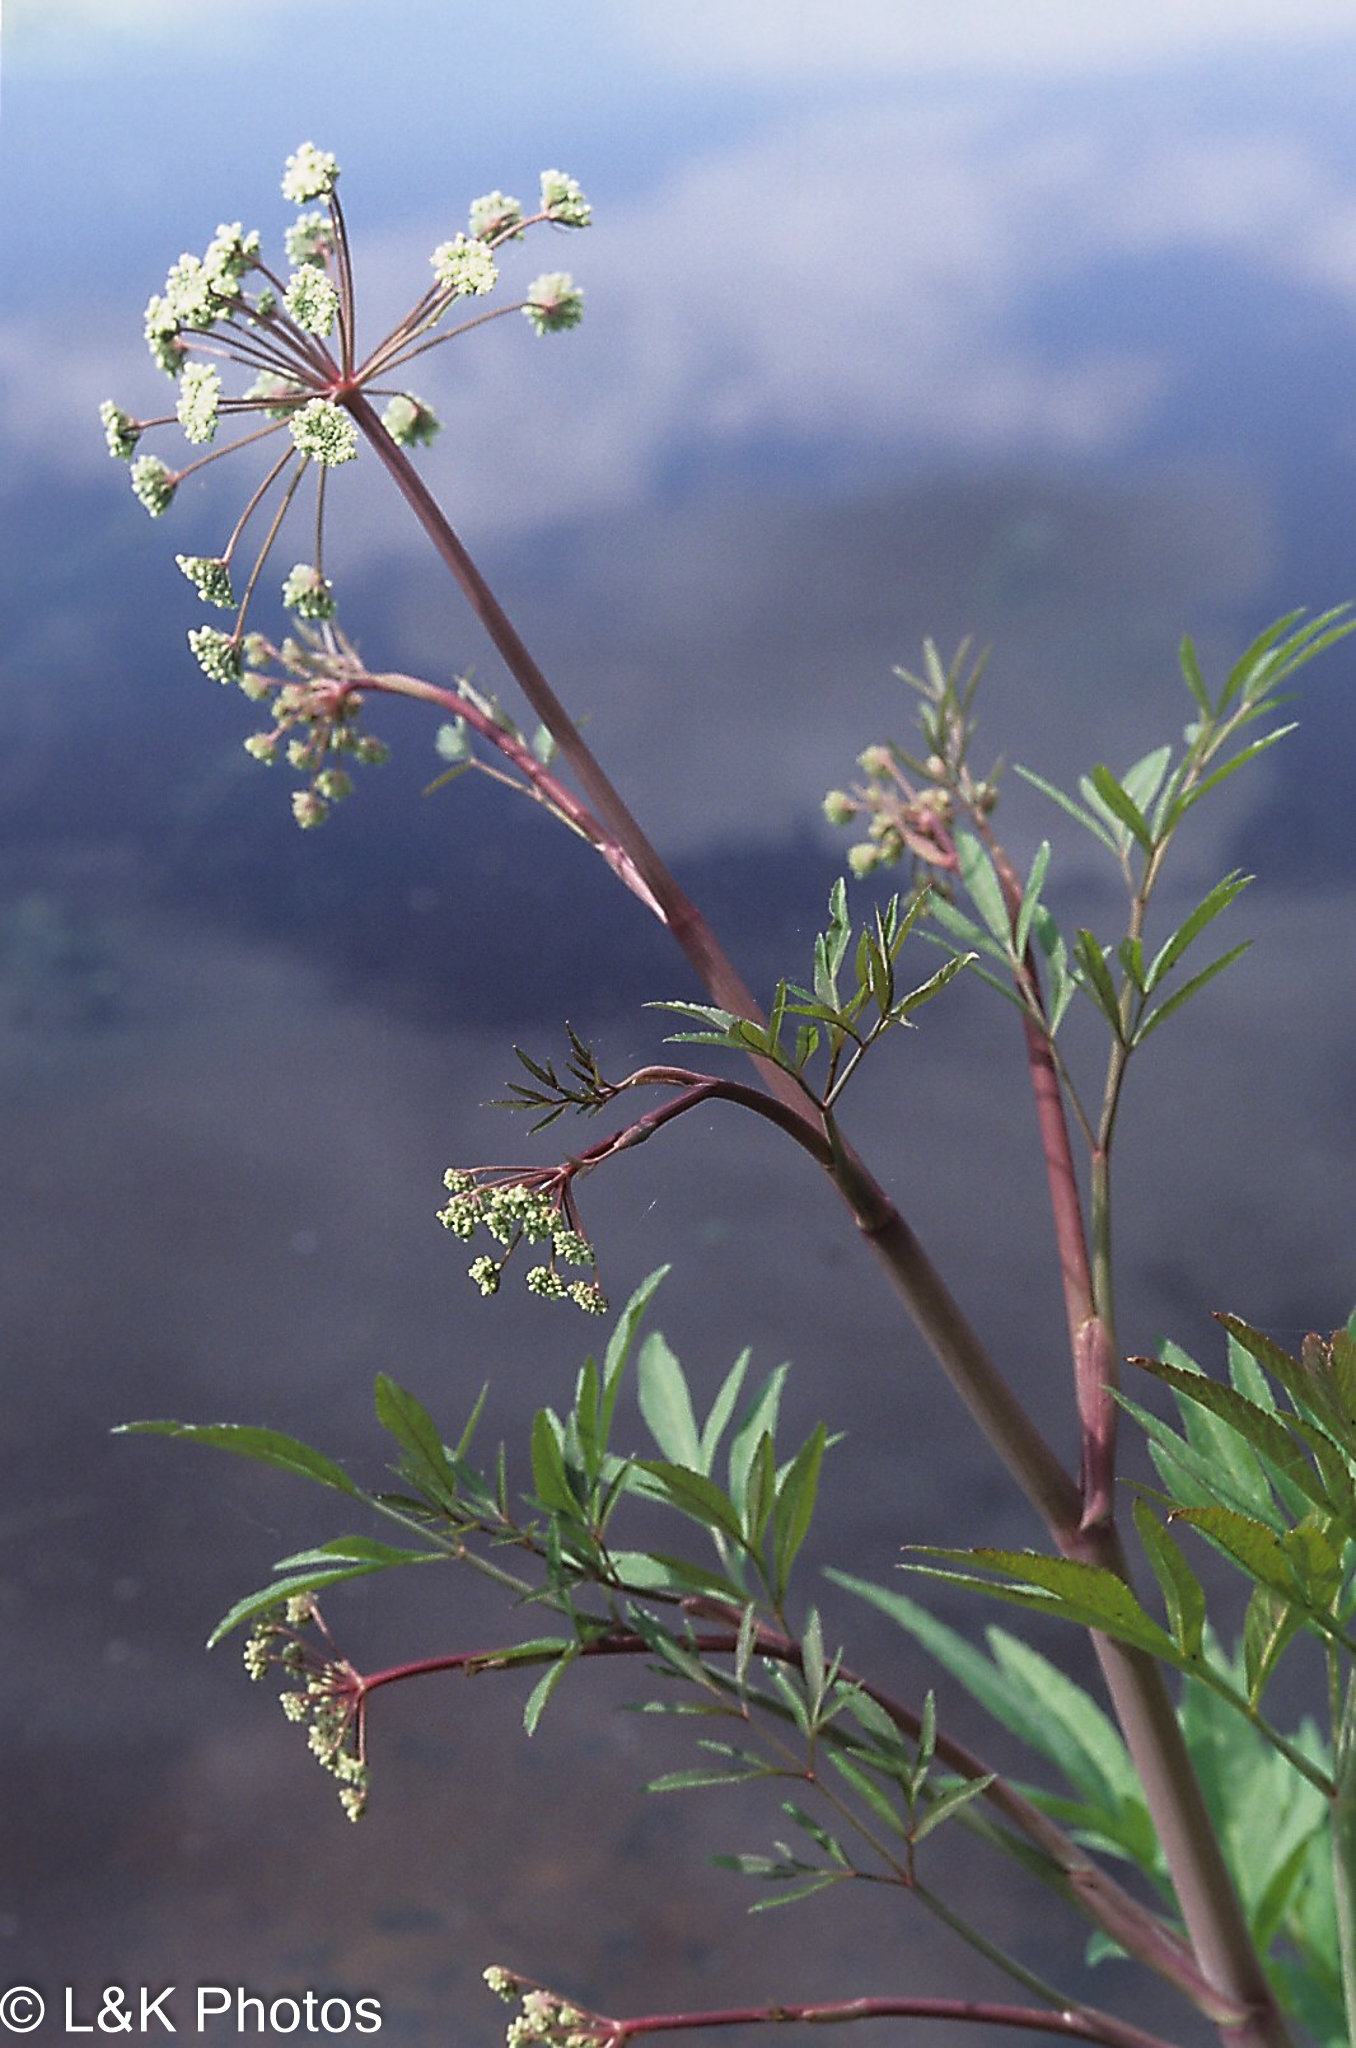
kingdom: Plantae
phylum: Tracheophyta
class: Magnoliopsida
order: Apiales
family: Apiaceae
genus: Cicuta
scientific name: Cicuta maculata
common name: Spotted cowbane
